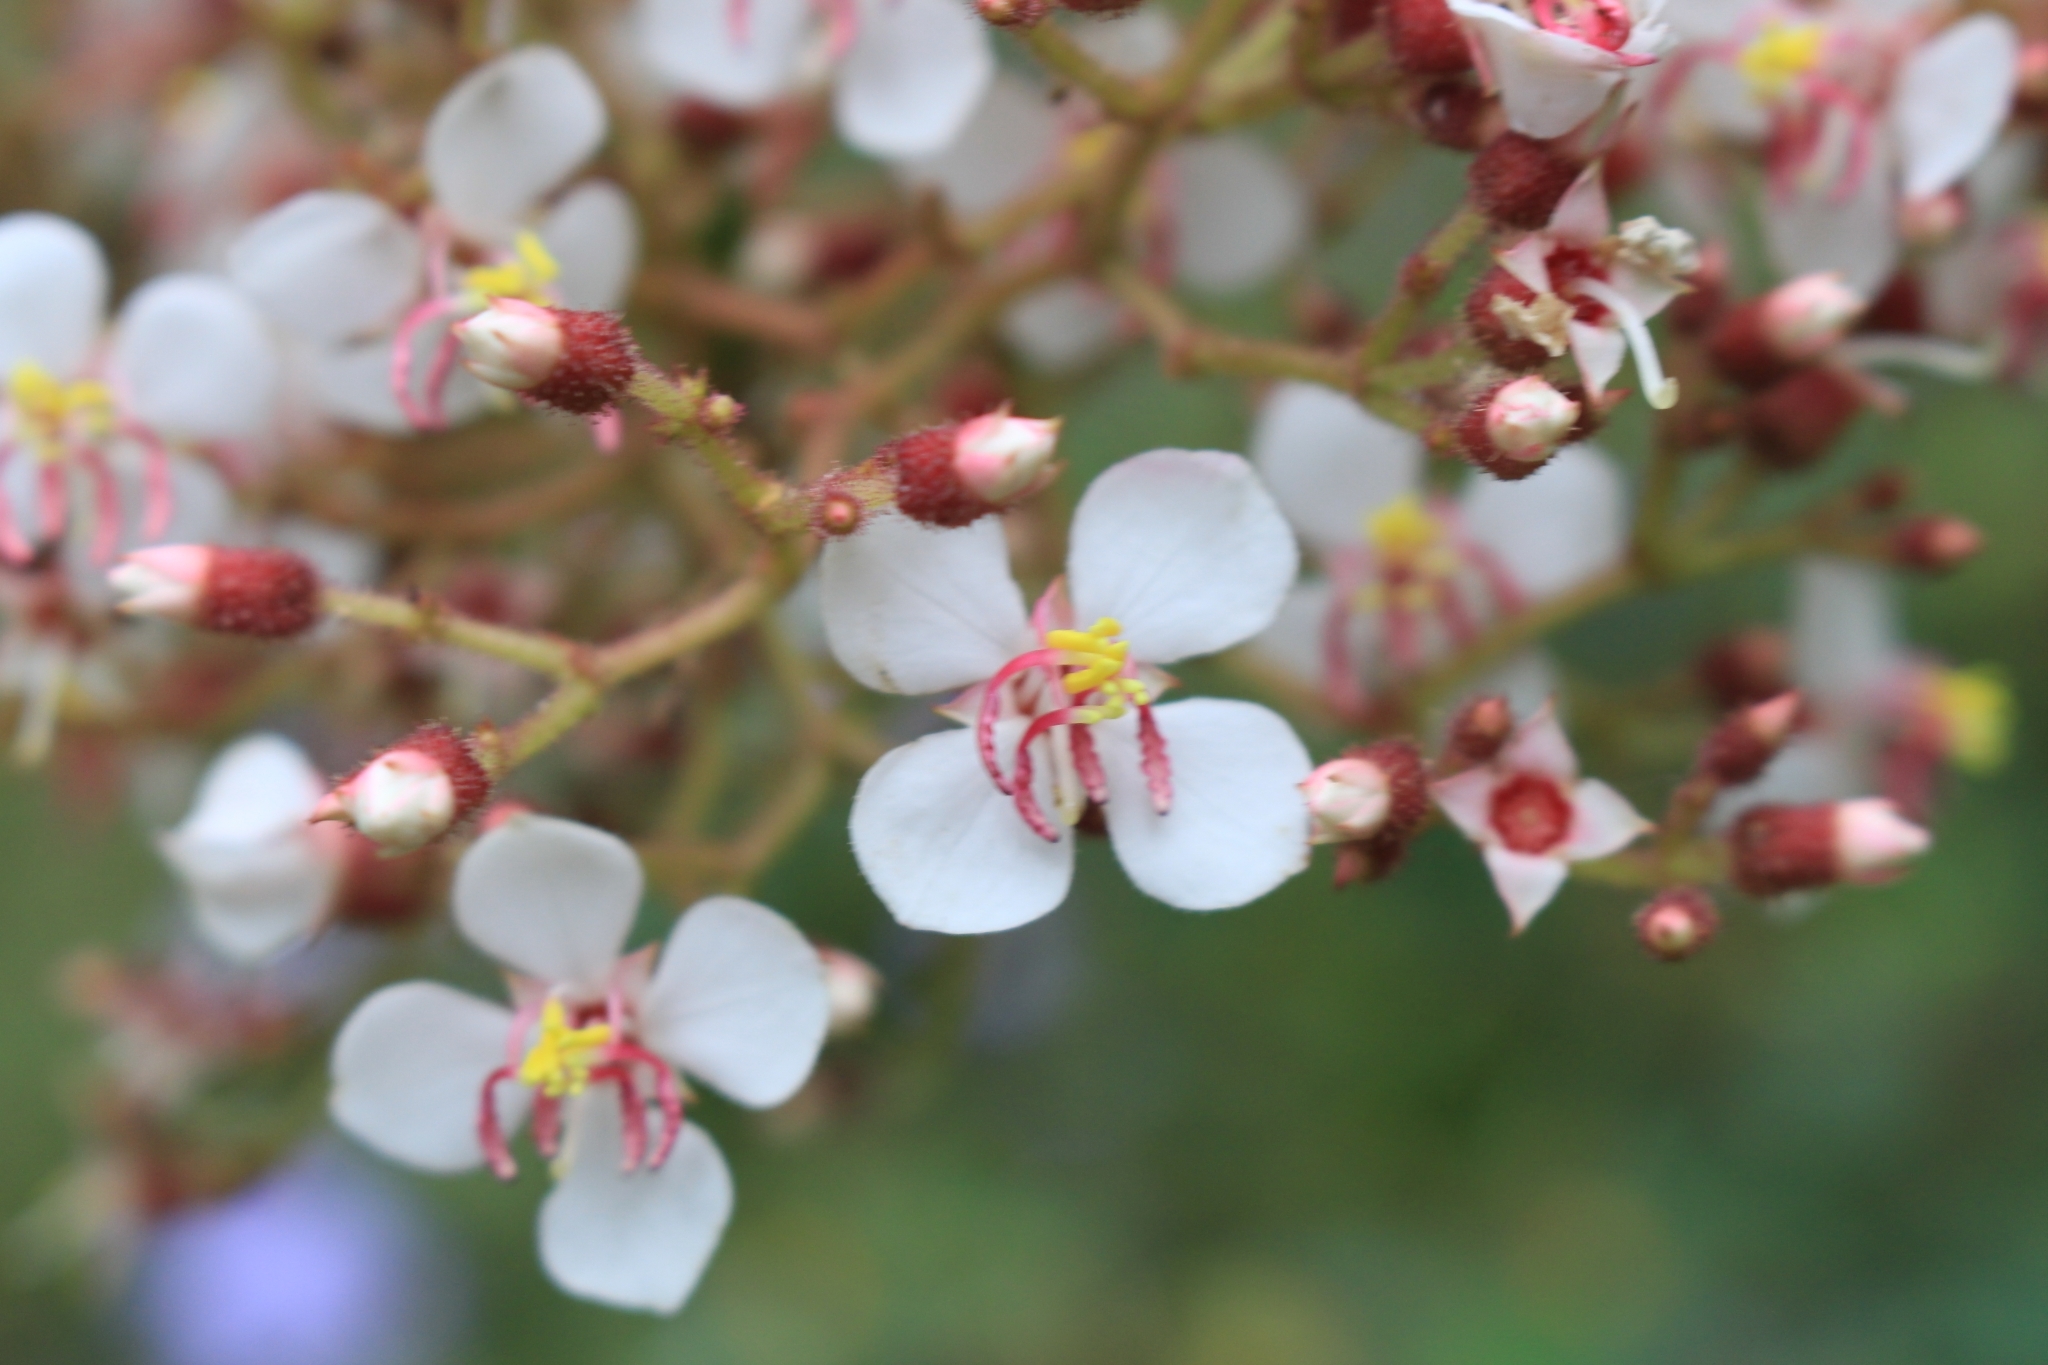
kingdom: Plantae
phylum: Tracheophyta
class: Magnoliopsida
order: Myrtales
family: Melastomataceae
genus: Heterocentron
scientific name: Heterocentron glandulosum
